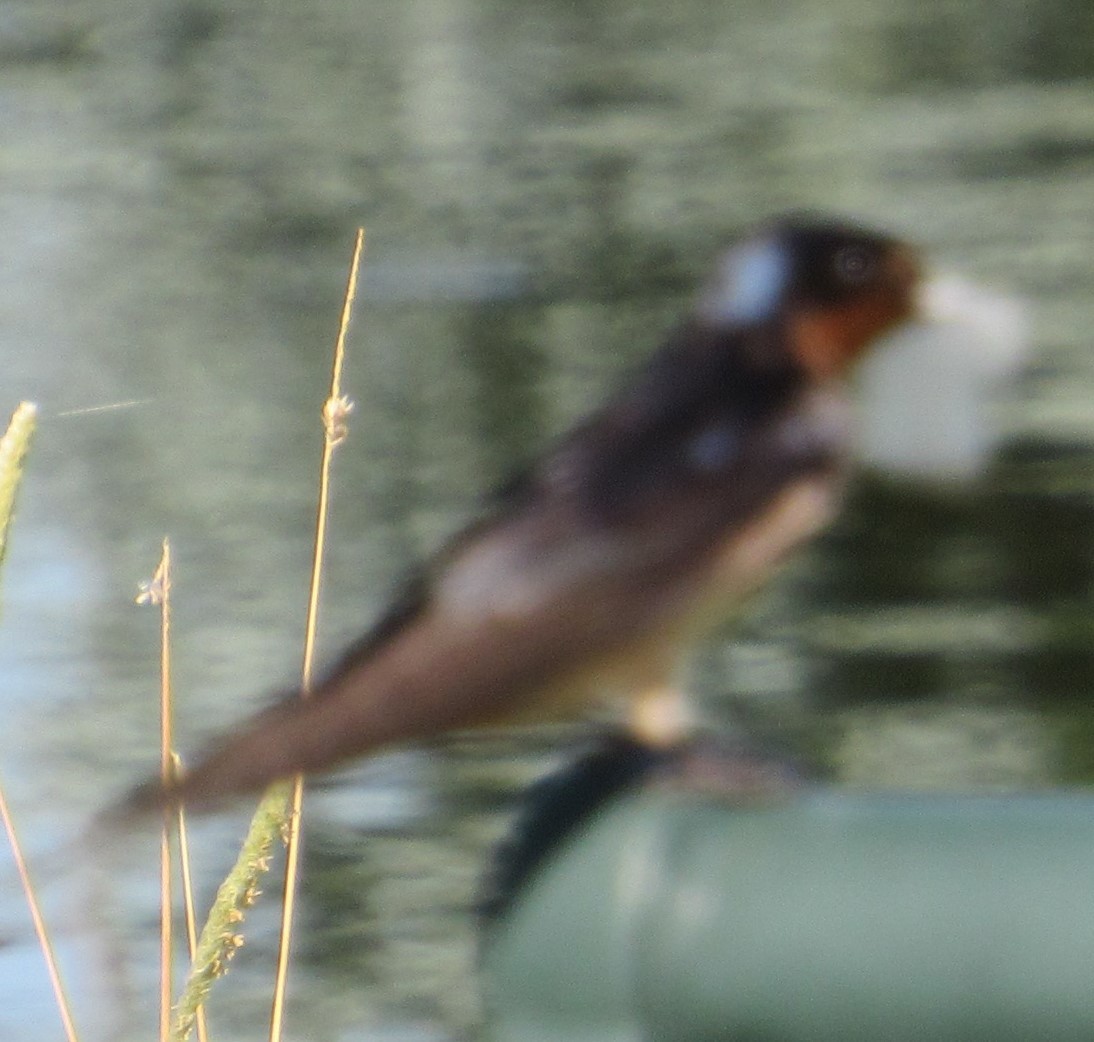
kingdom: Animalia
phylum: Chordata
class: Aves
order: Passeriformes
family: Hirundinidae
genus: Hirundo
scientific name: Hirundo rustica
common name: Barn swallow
